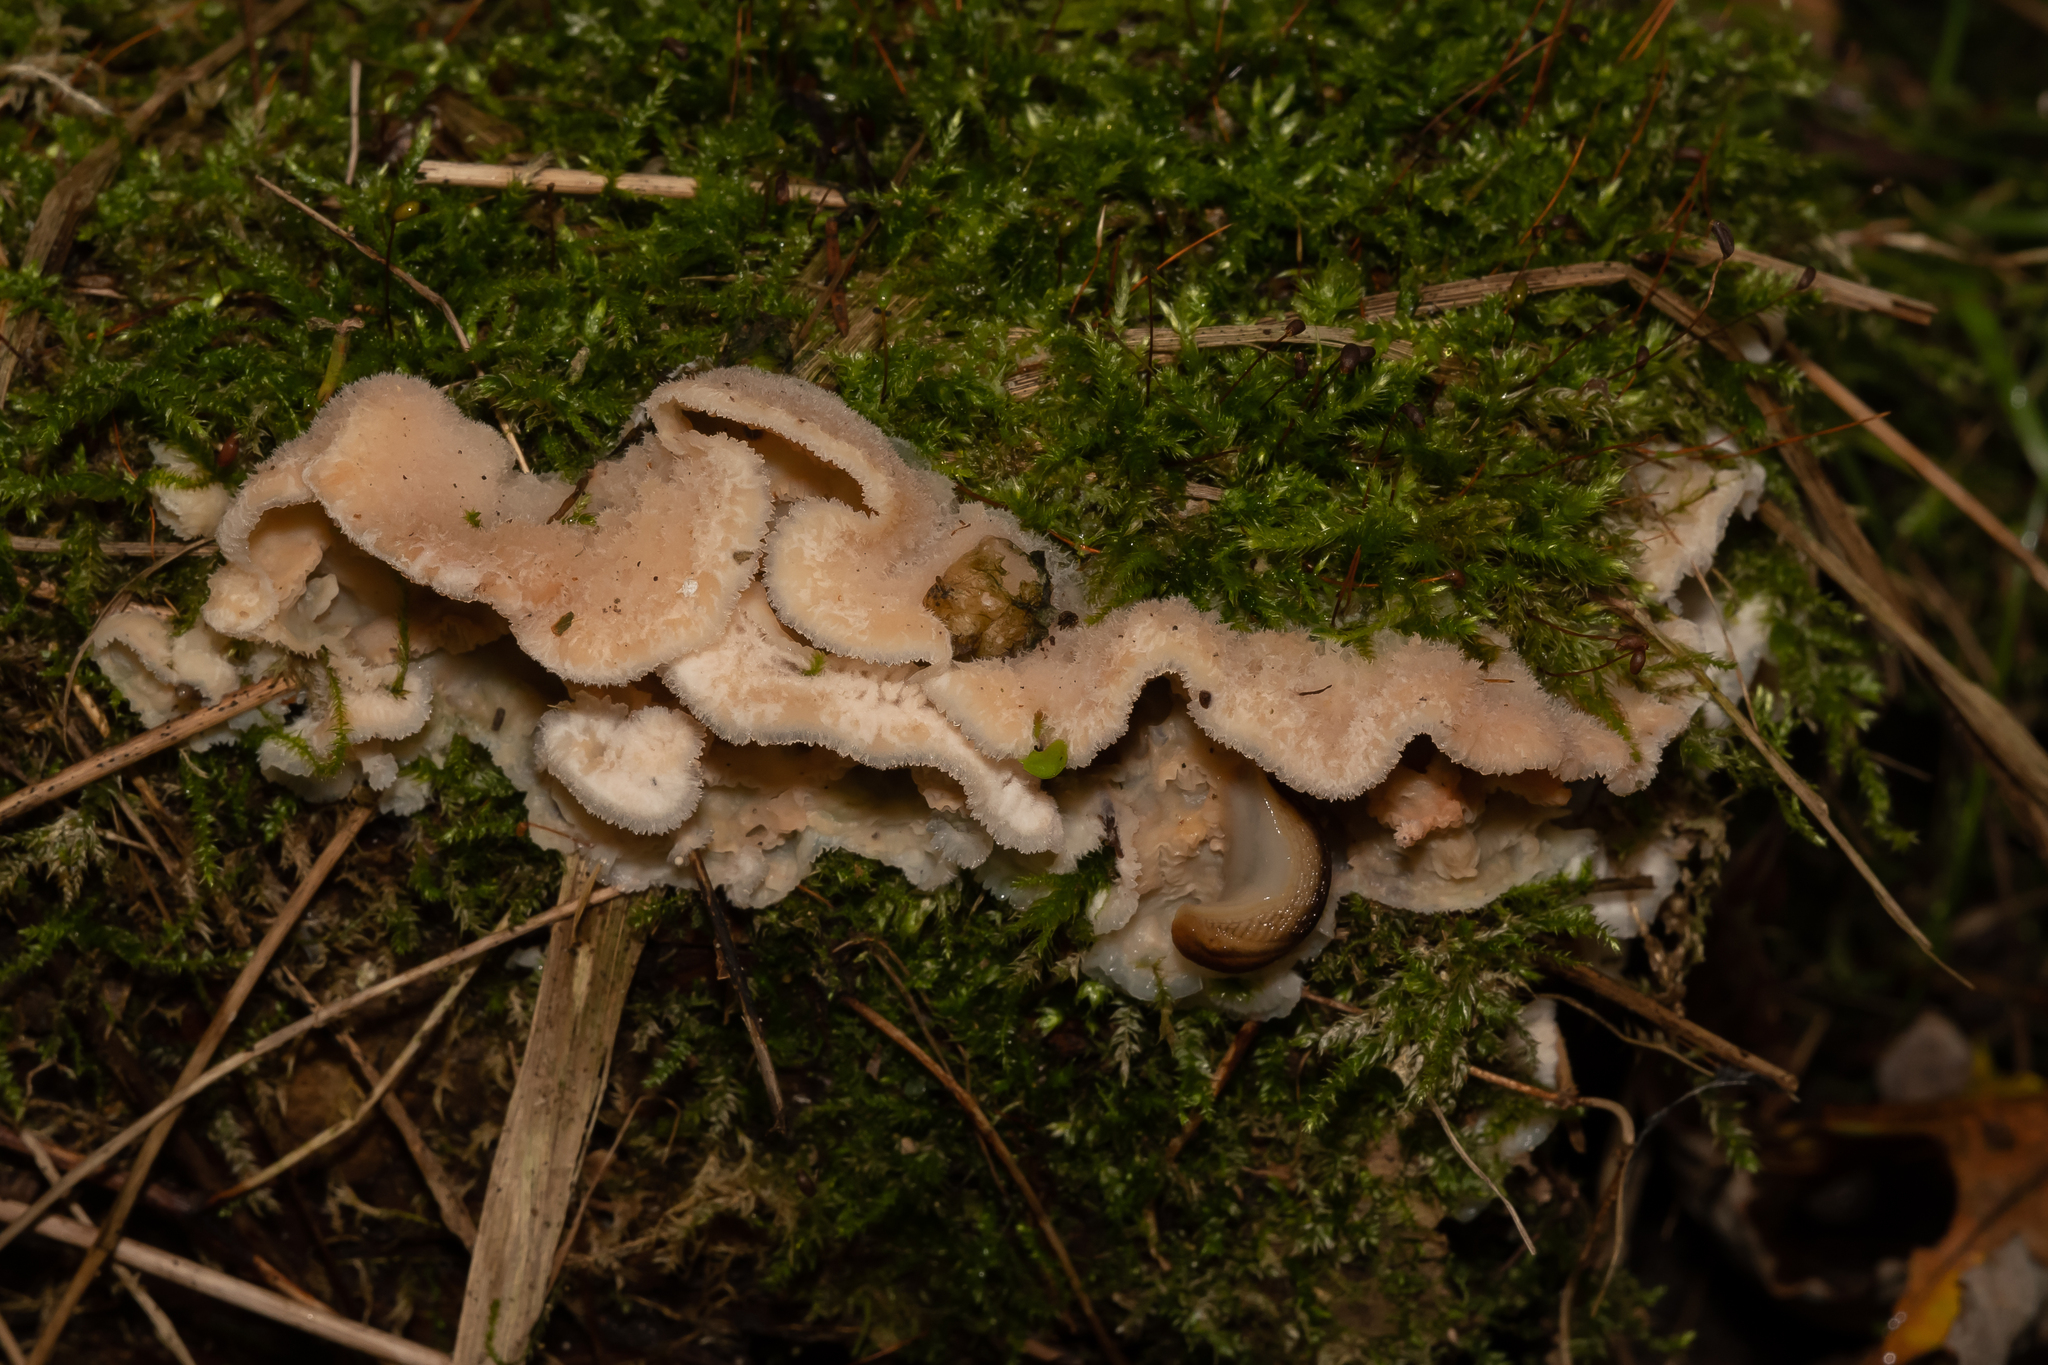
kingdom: Fungi
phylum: Basidiomycota
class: Agaricomycetes
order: Polyporales
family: Meruliaceae
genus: Phlebia
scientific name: Phlebia tremellosa
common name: Jelly rot
